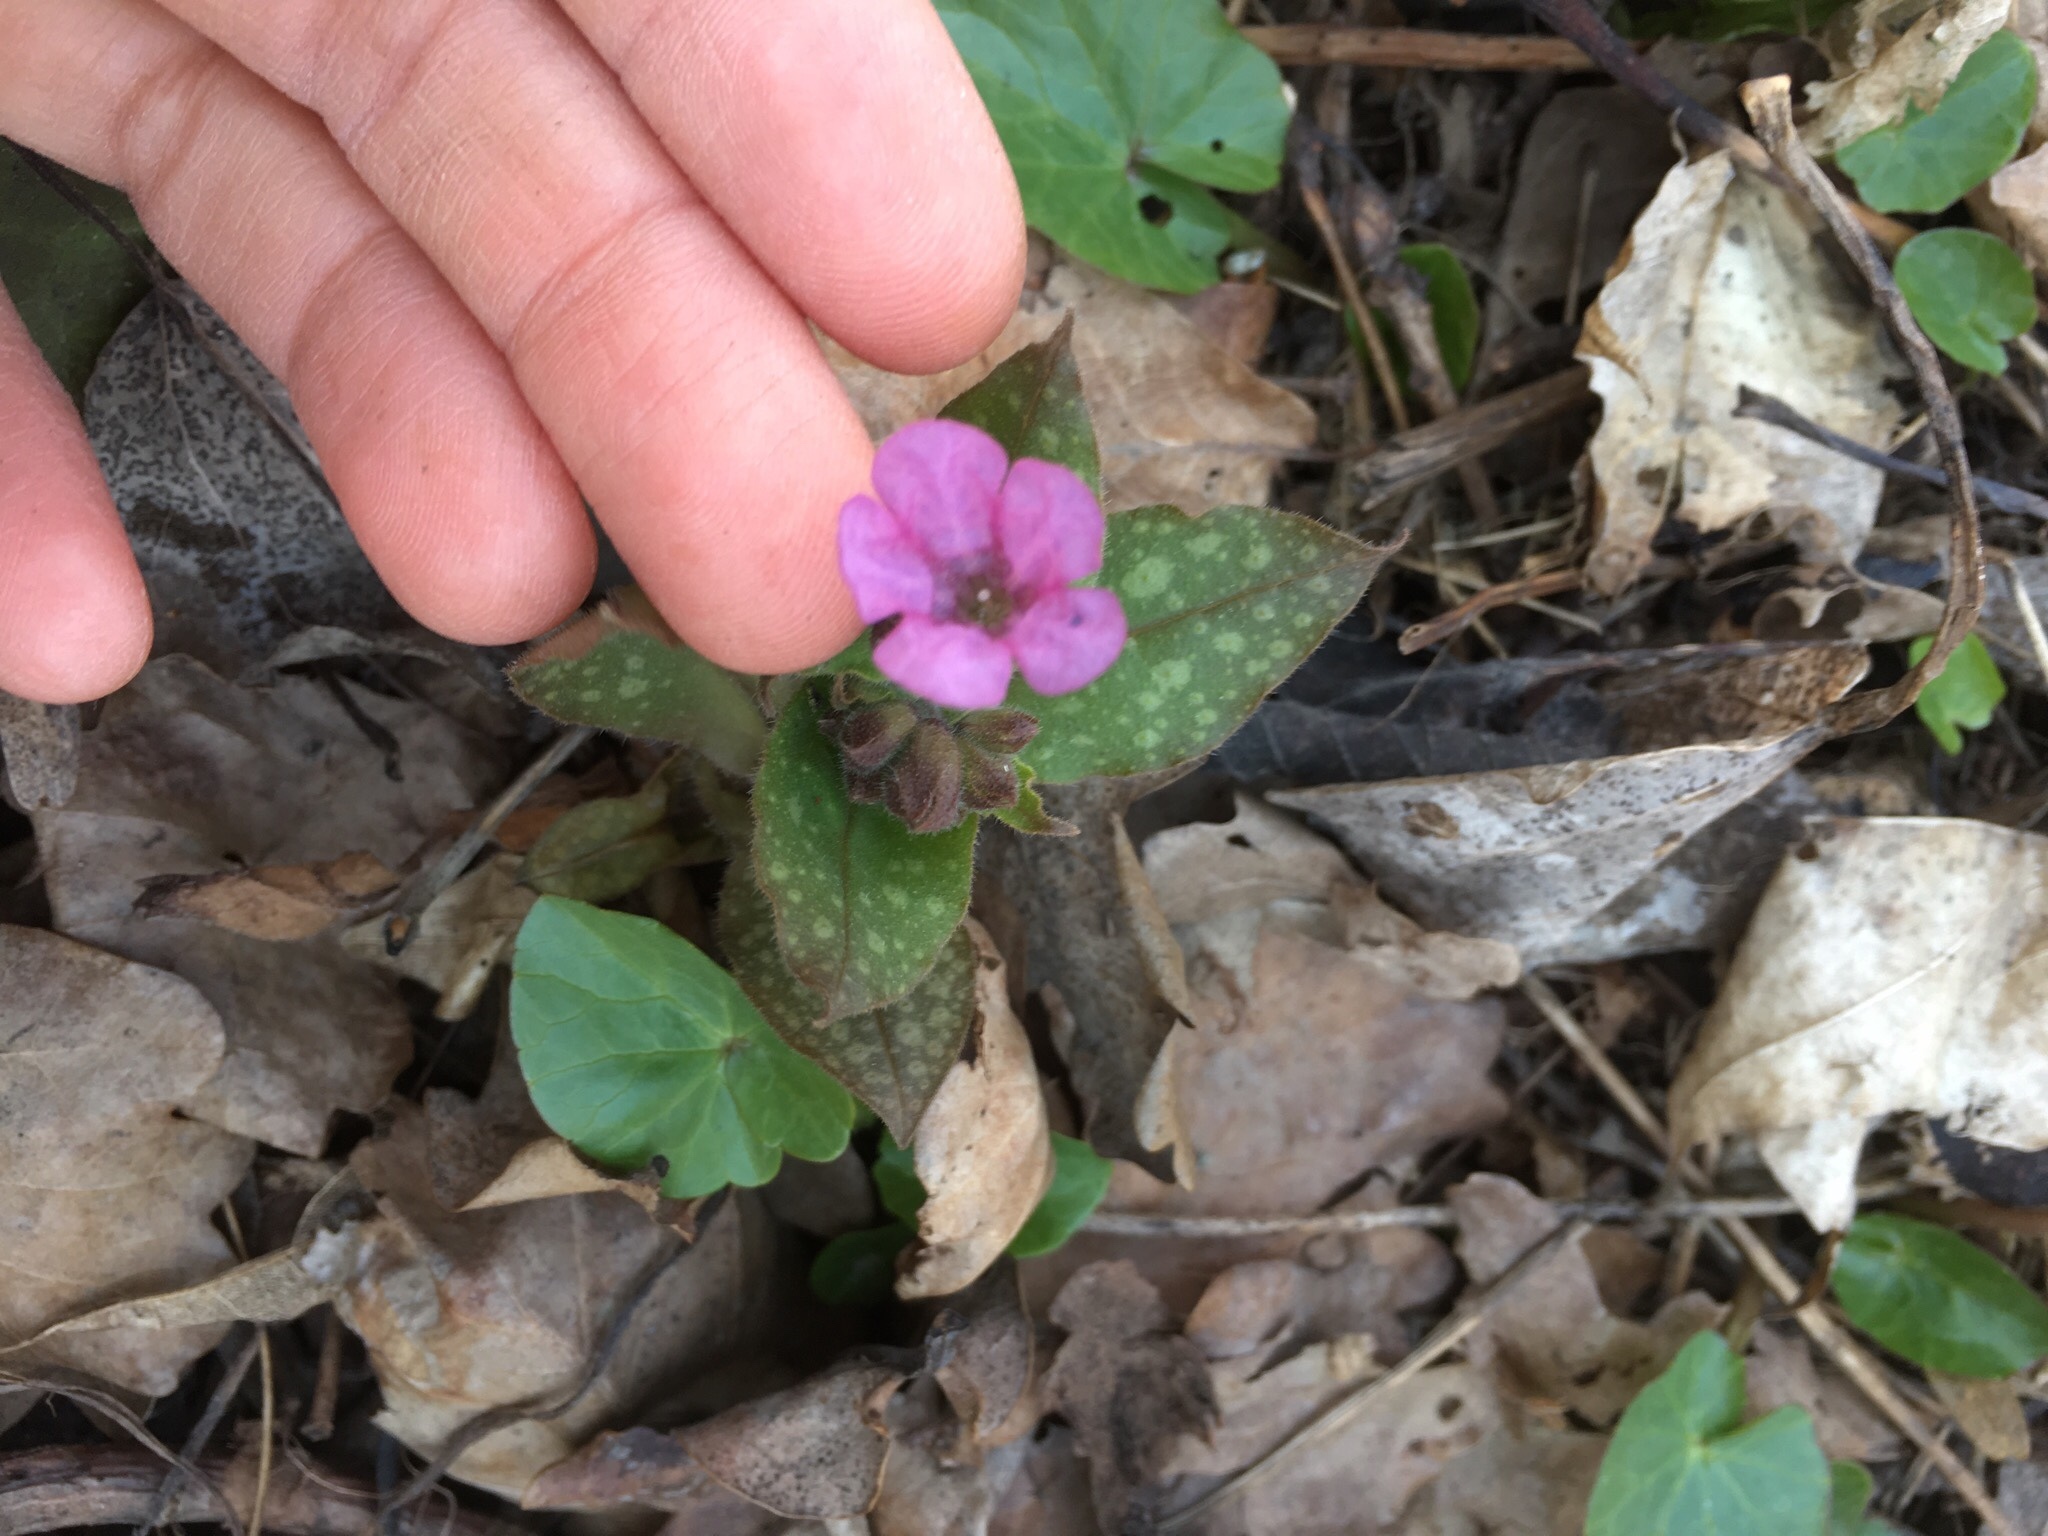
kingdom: Plantae
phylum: Tracheophyta
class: Magnoliopsida
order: Boraginales
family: Boraginaceae
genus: Pulmonaria
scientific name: Pulmonaria obscura
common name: Suffolk lungwort
